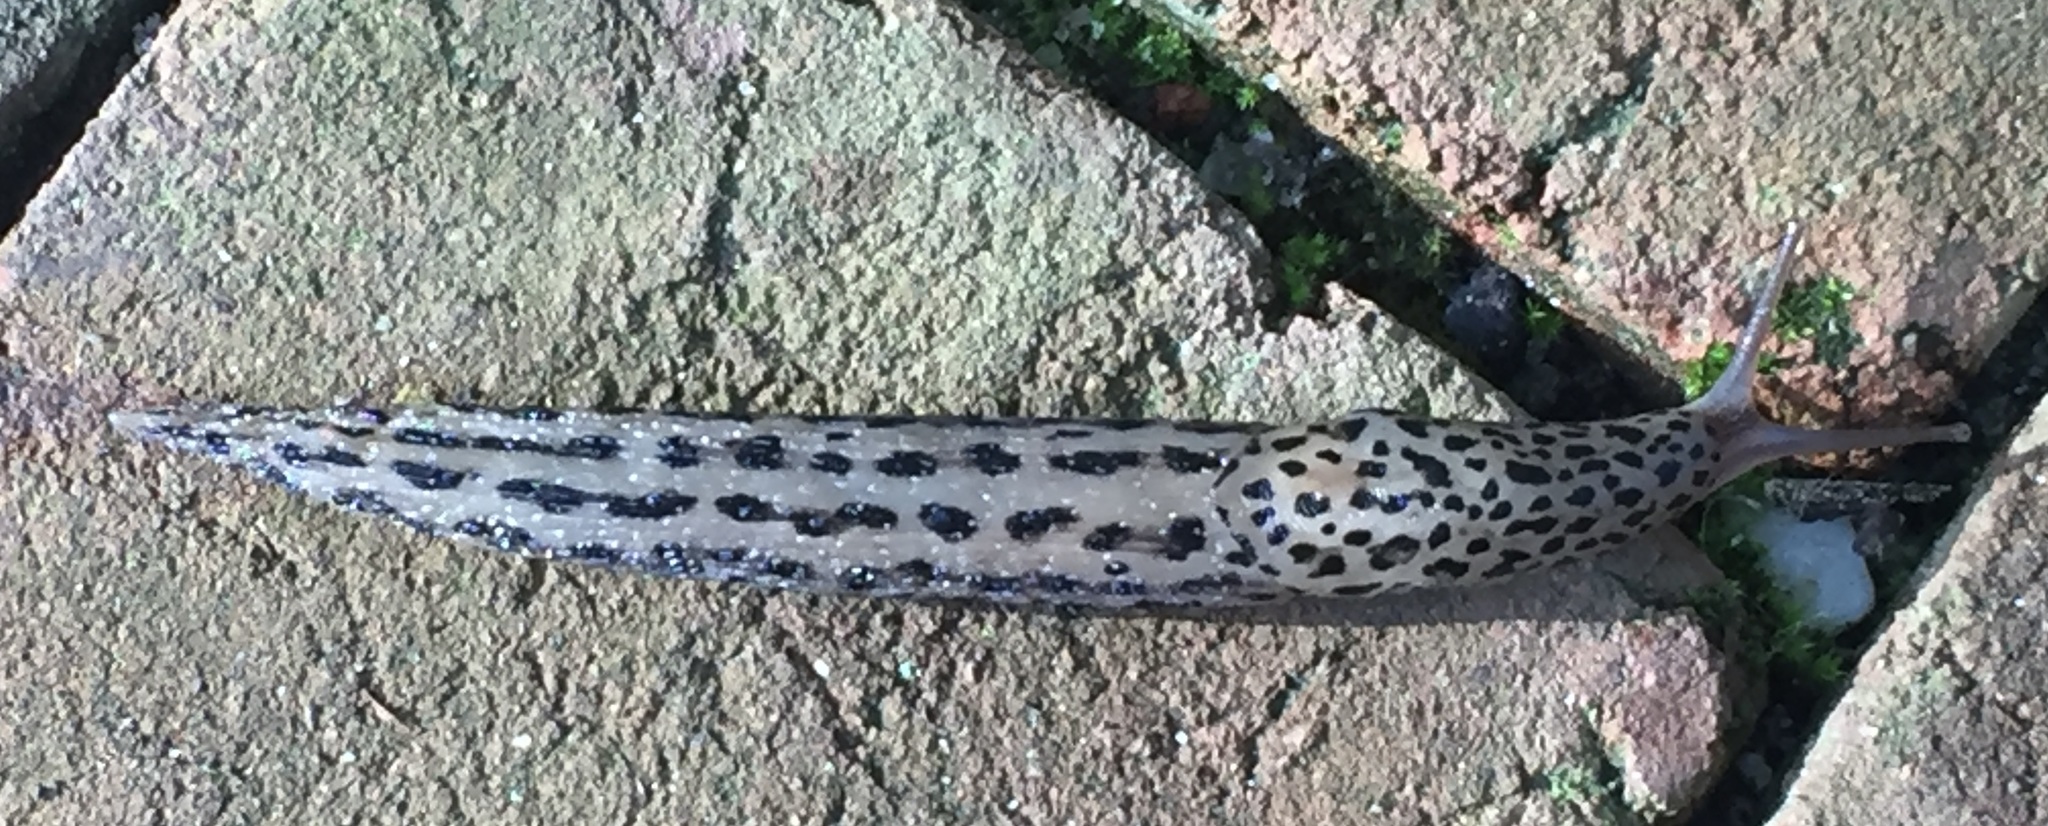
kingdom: Animalia
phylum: Mollusca
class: Gastropoda
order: Stylommatophora
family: Limacidae
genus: Limax
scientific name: Limax maximus
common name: Great grey slug
